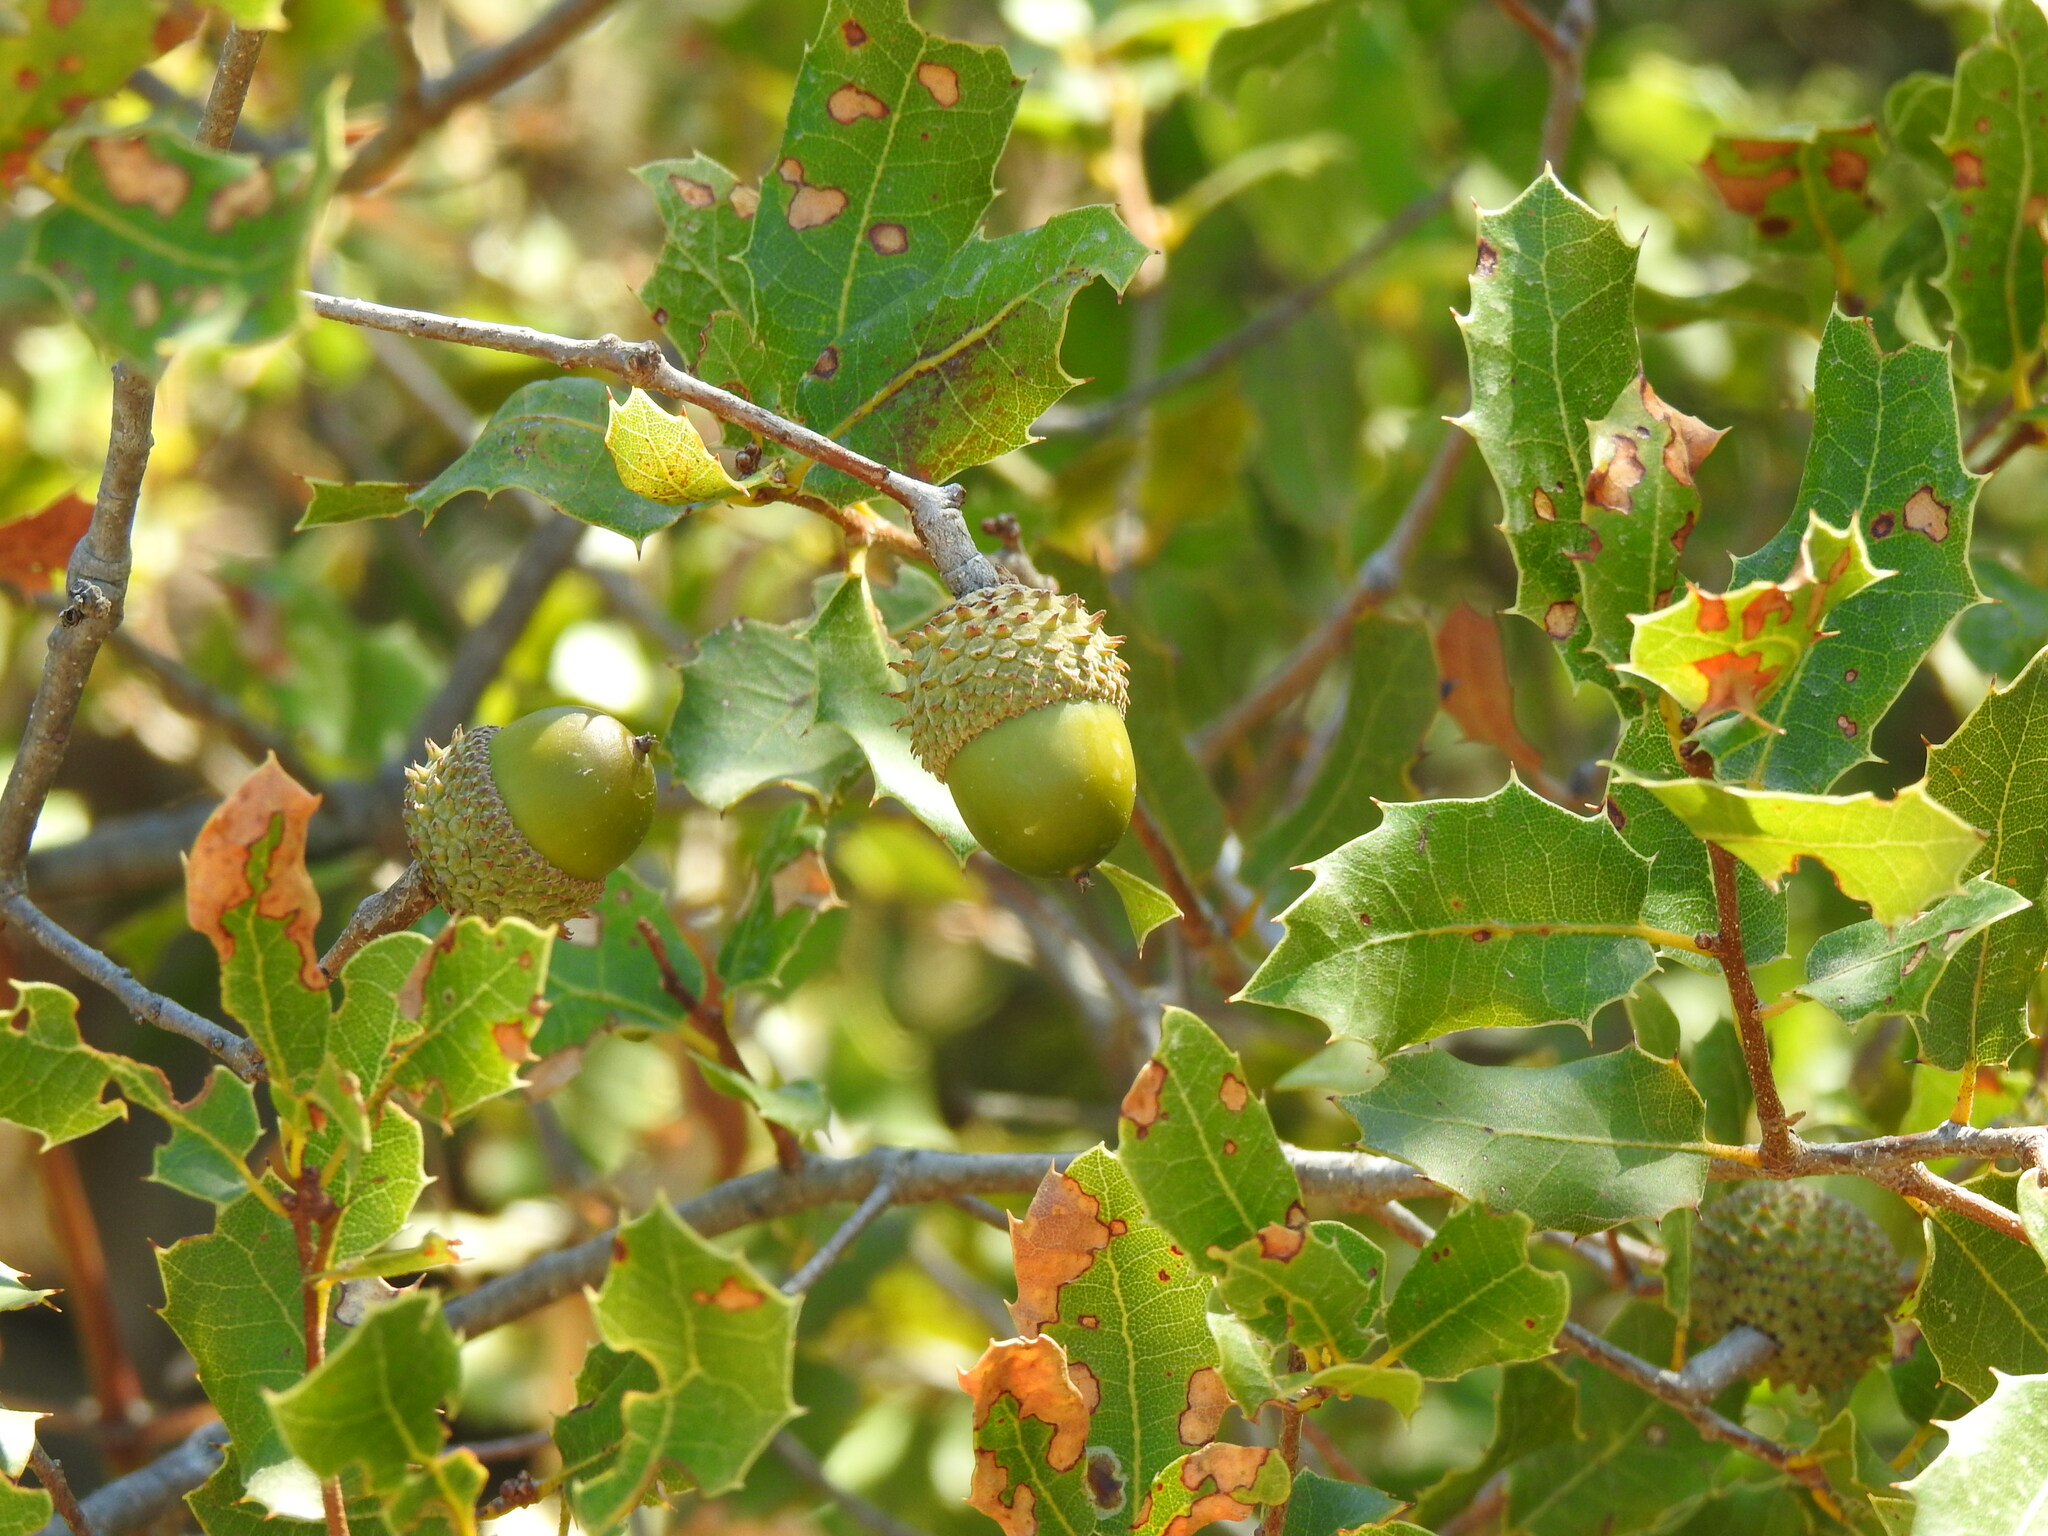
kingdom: Plantae
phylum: Tracheophyta
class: Magnoliopsida
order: Fagales
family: Fagaceae
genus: Quercus
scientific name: Quercus coccifera
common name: Kermes oak
